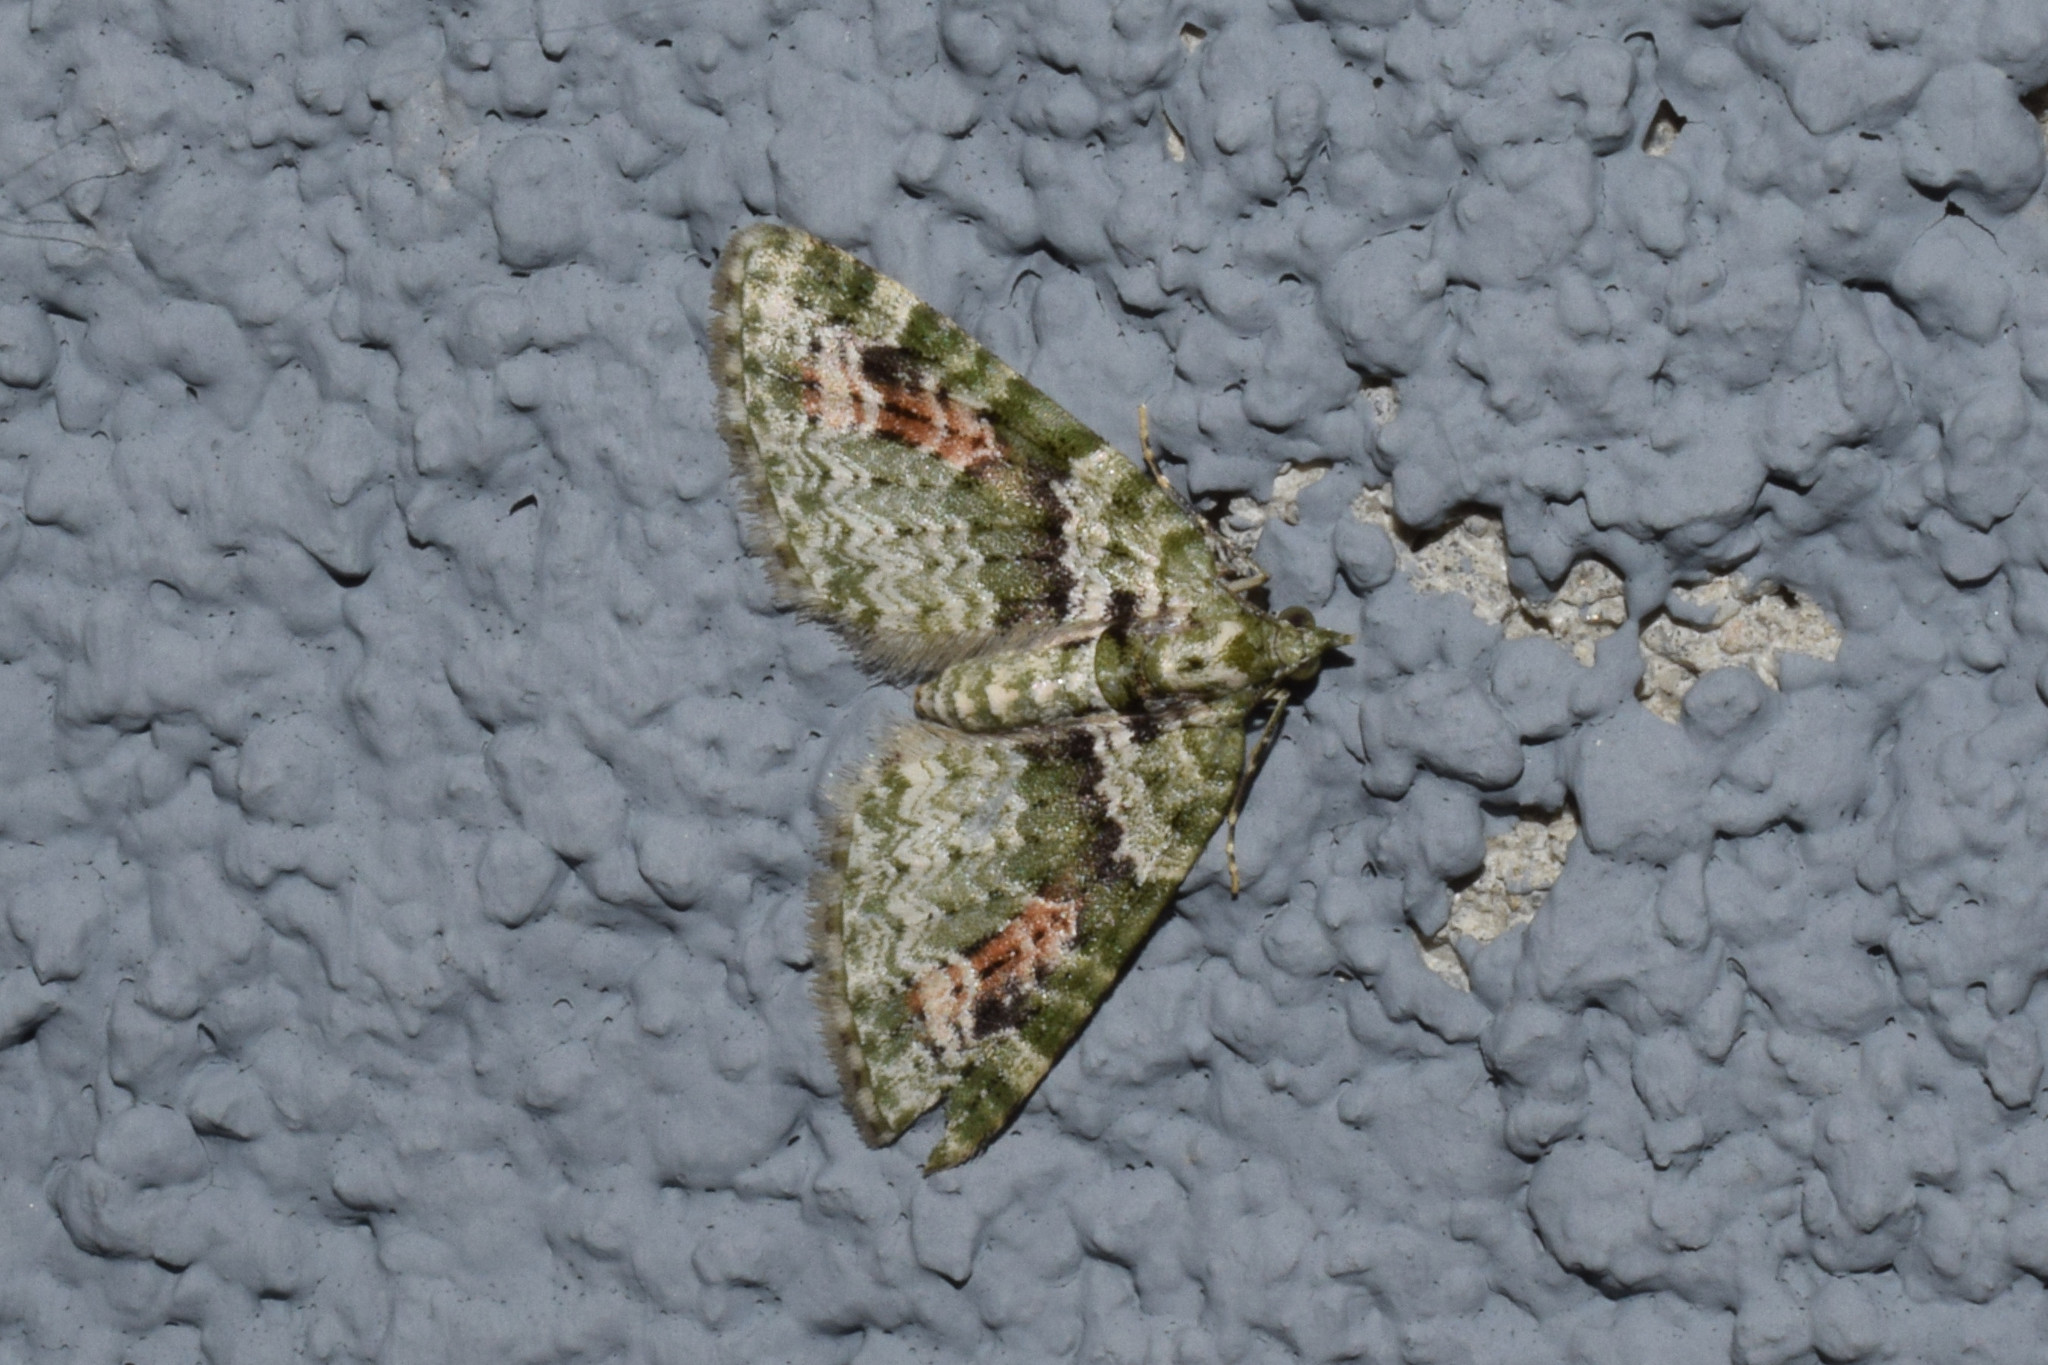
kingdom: Animalia
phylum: Arthropoda
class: Insecta
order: Lepidoptera
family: Geometridae
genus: Chloroclystis
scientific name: Chloroclystis rubroviridis
